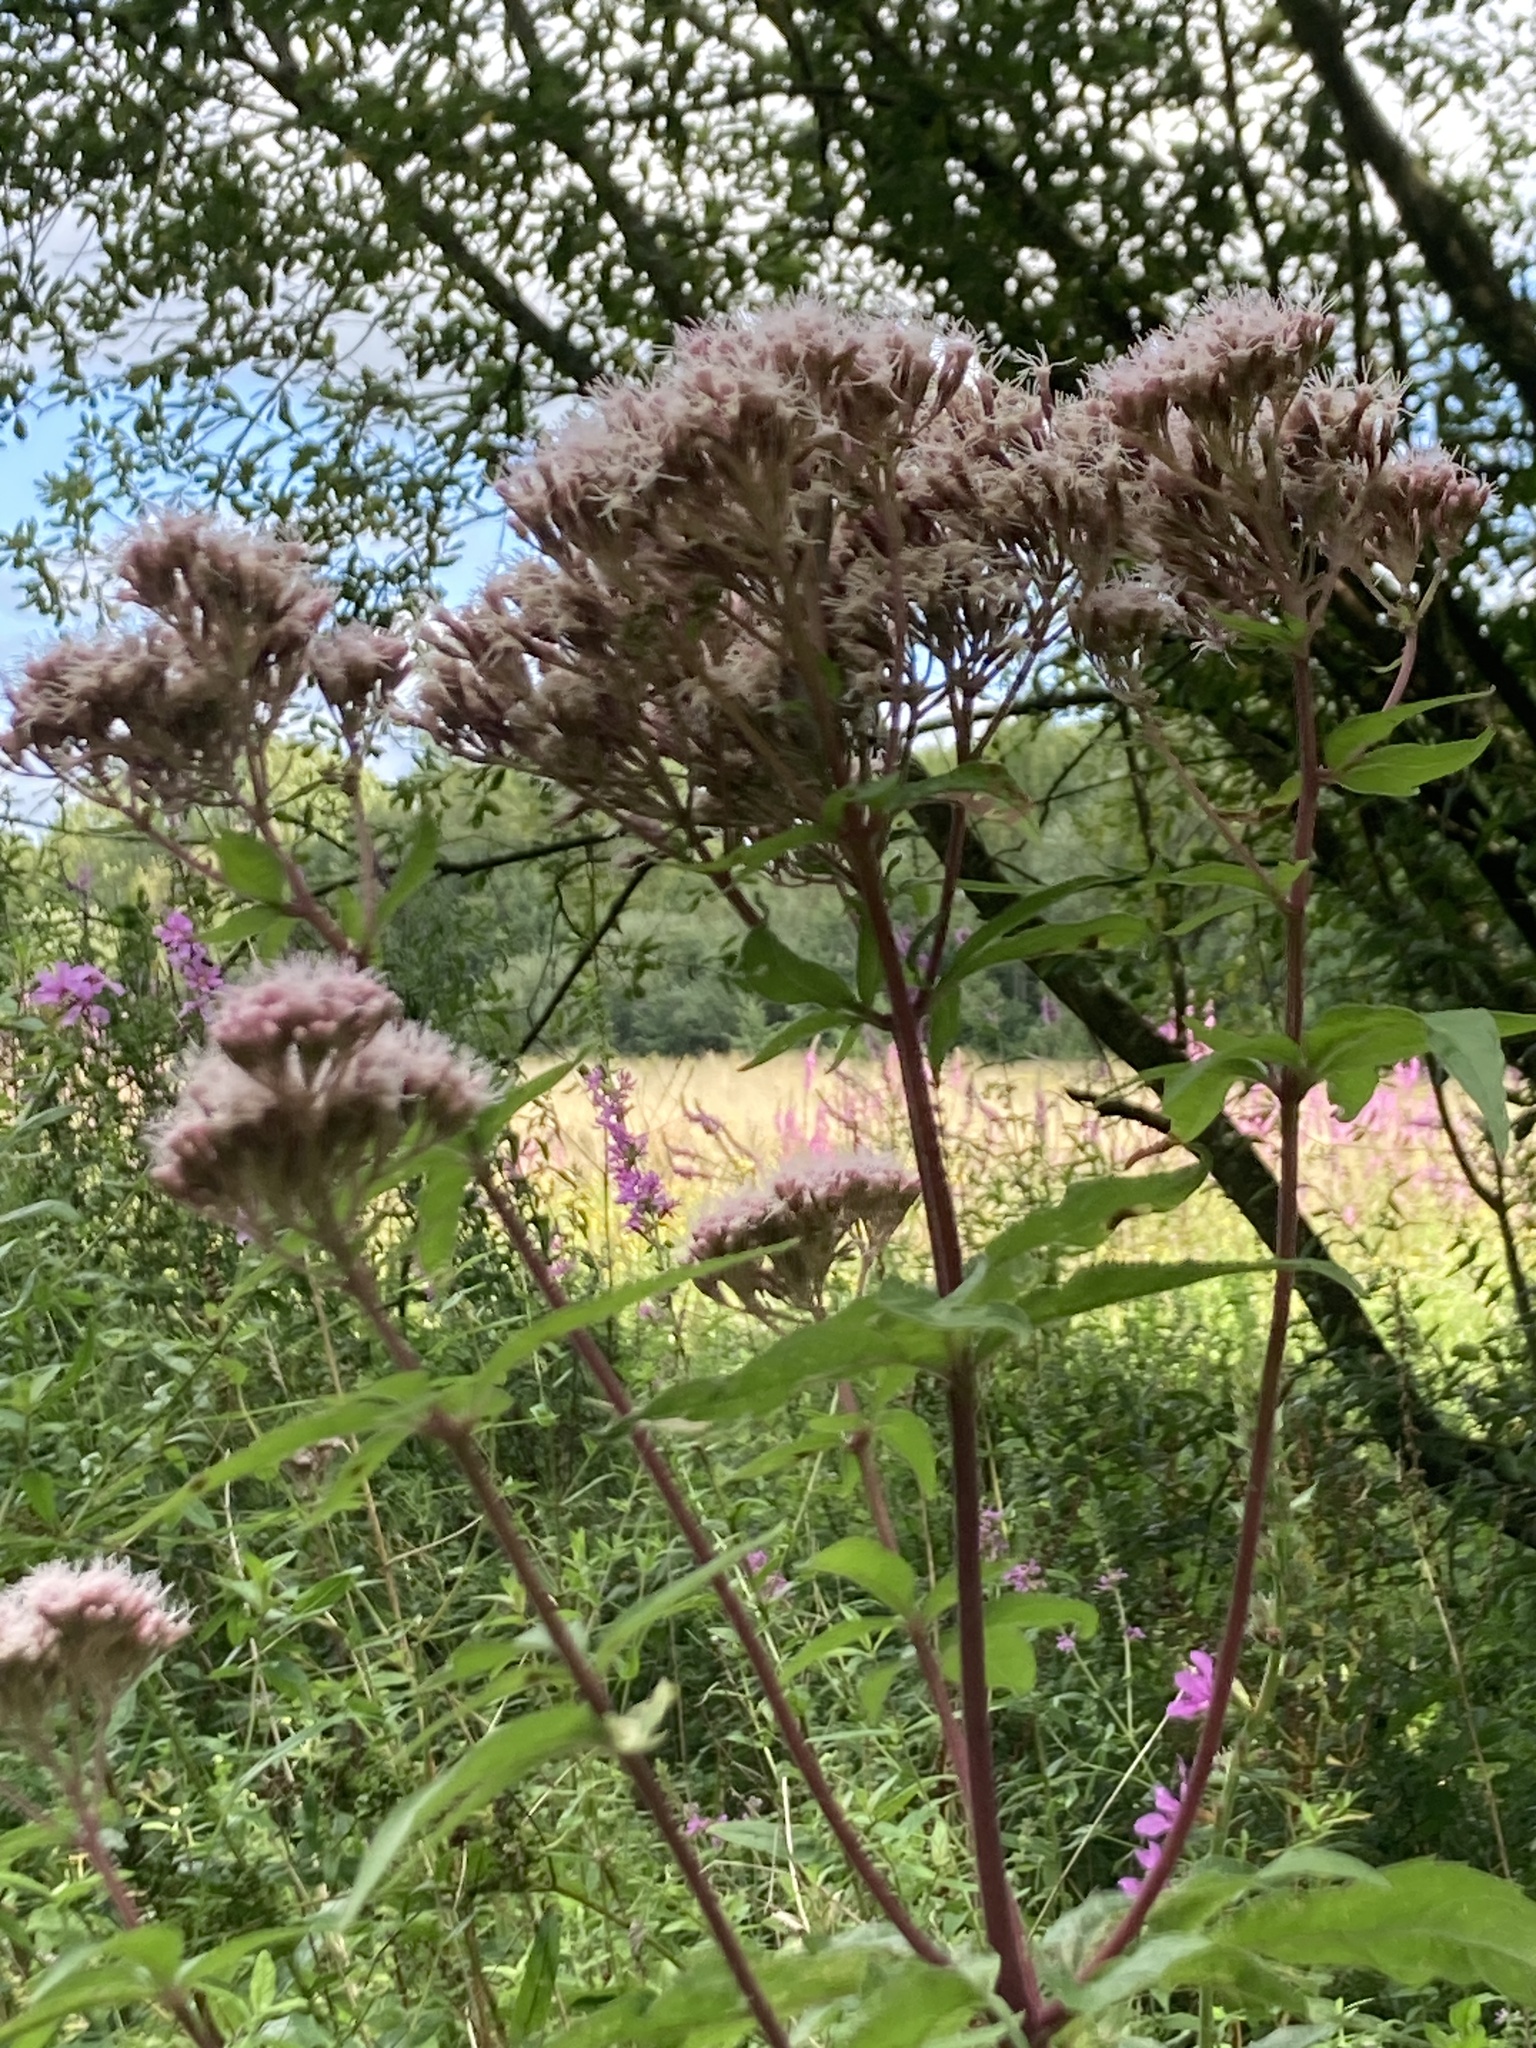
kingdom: Plantae
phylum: Tracheophyta
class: Magnoliopsida
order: Asterales
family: Asteraceae
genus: Eupatorium
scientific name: Eupatorium cannabinum
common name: Hemp-agrimony
